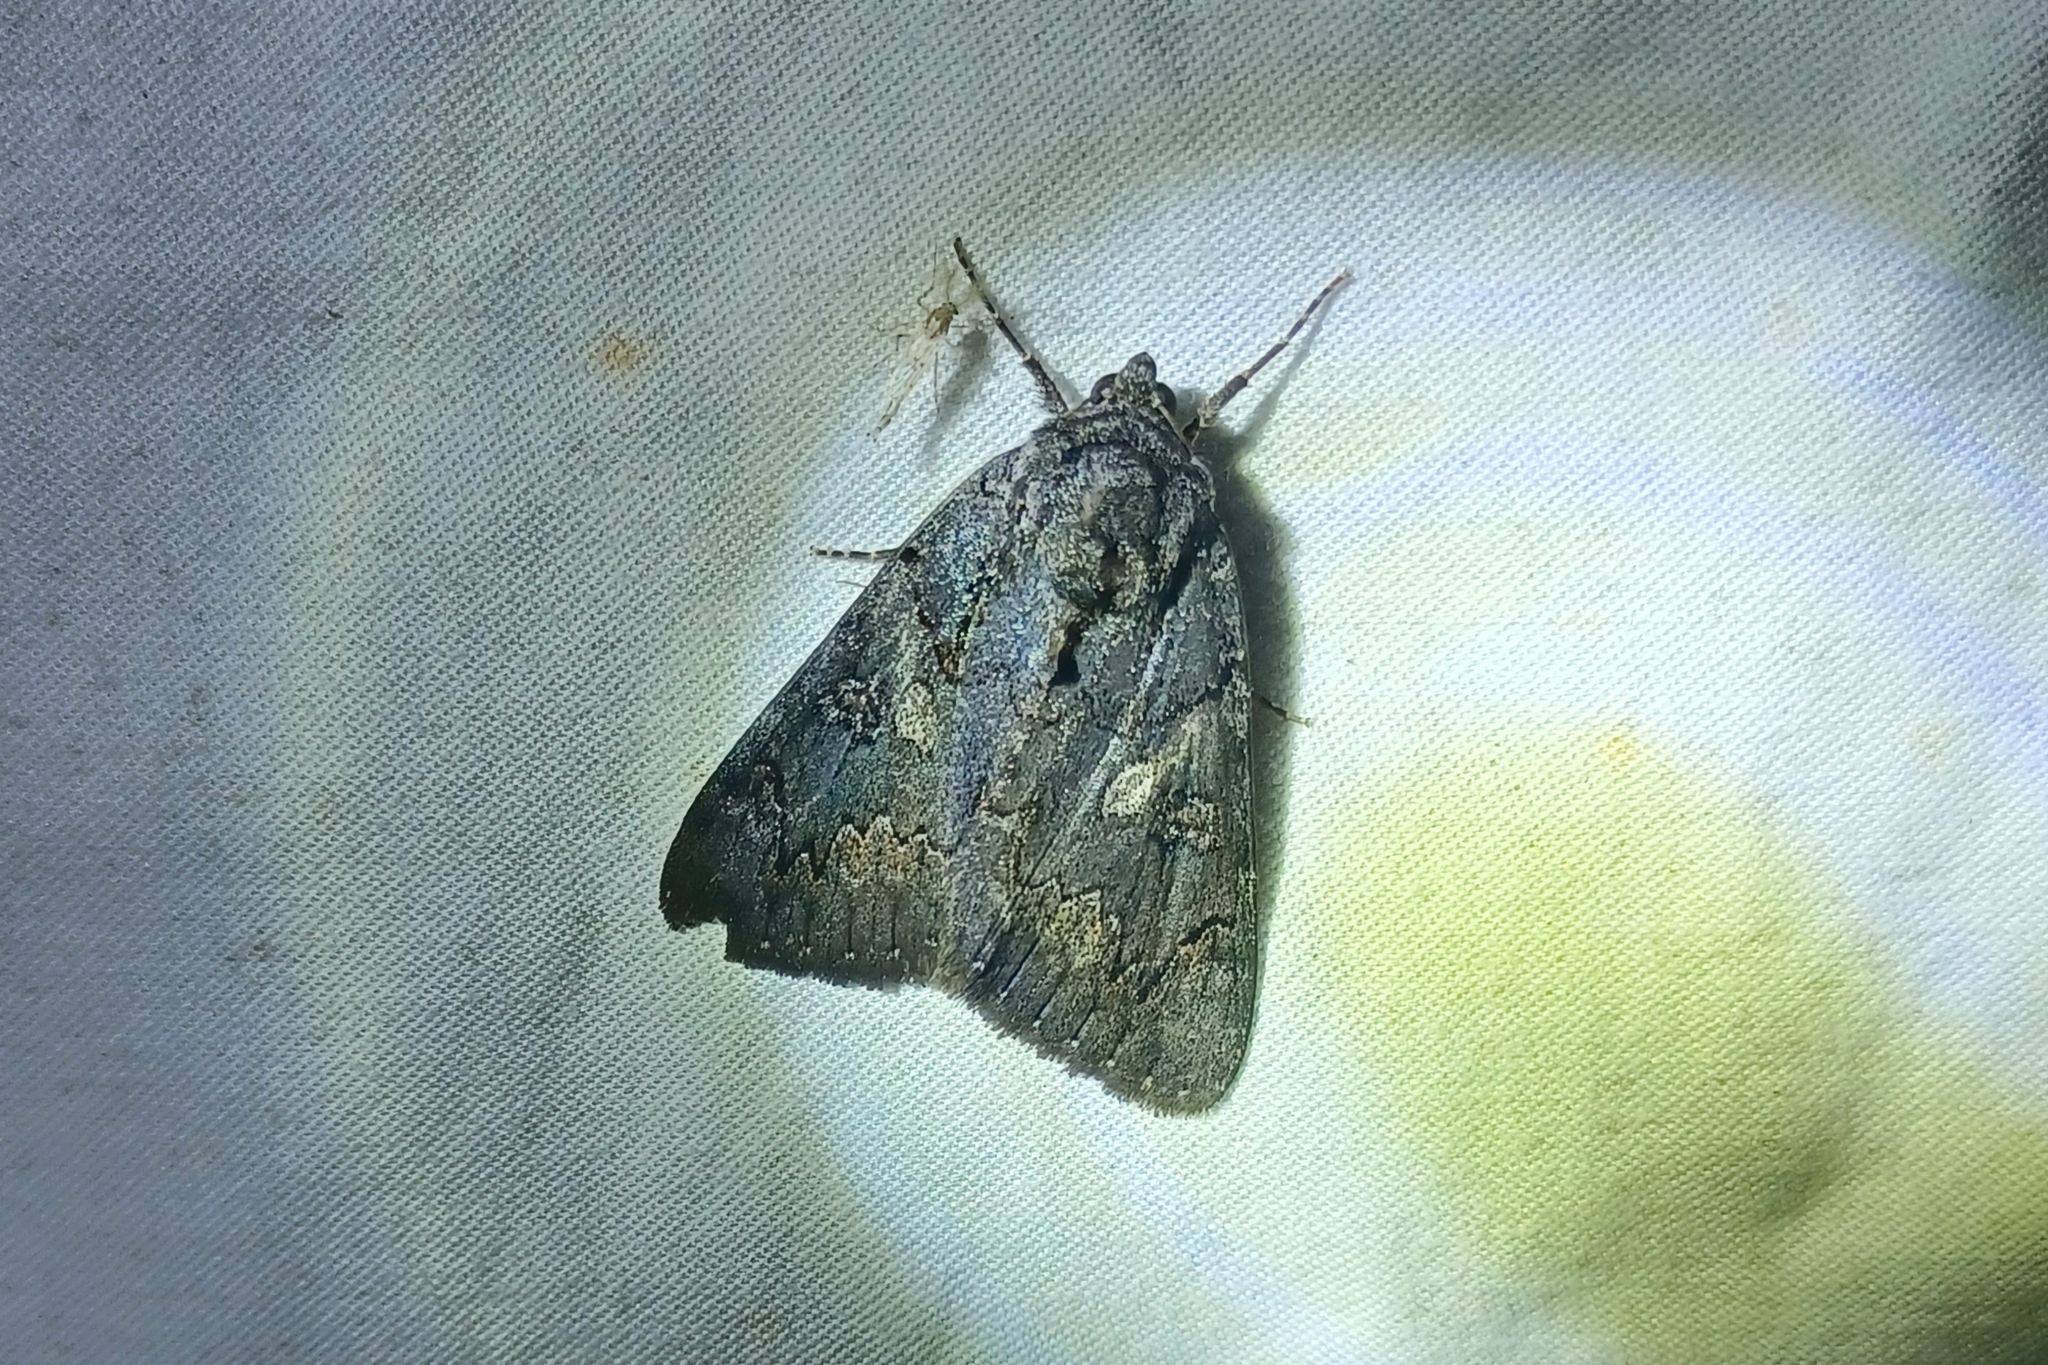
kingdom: Animalia
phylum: Arthropoda
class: Insecta
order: Lepidoptera
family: Erebidae
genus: Catocala
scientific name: Catocala antinympha
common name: Sweetfern underwing
